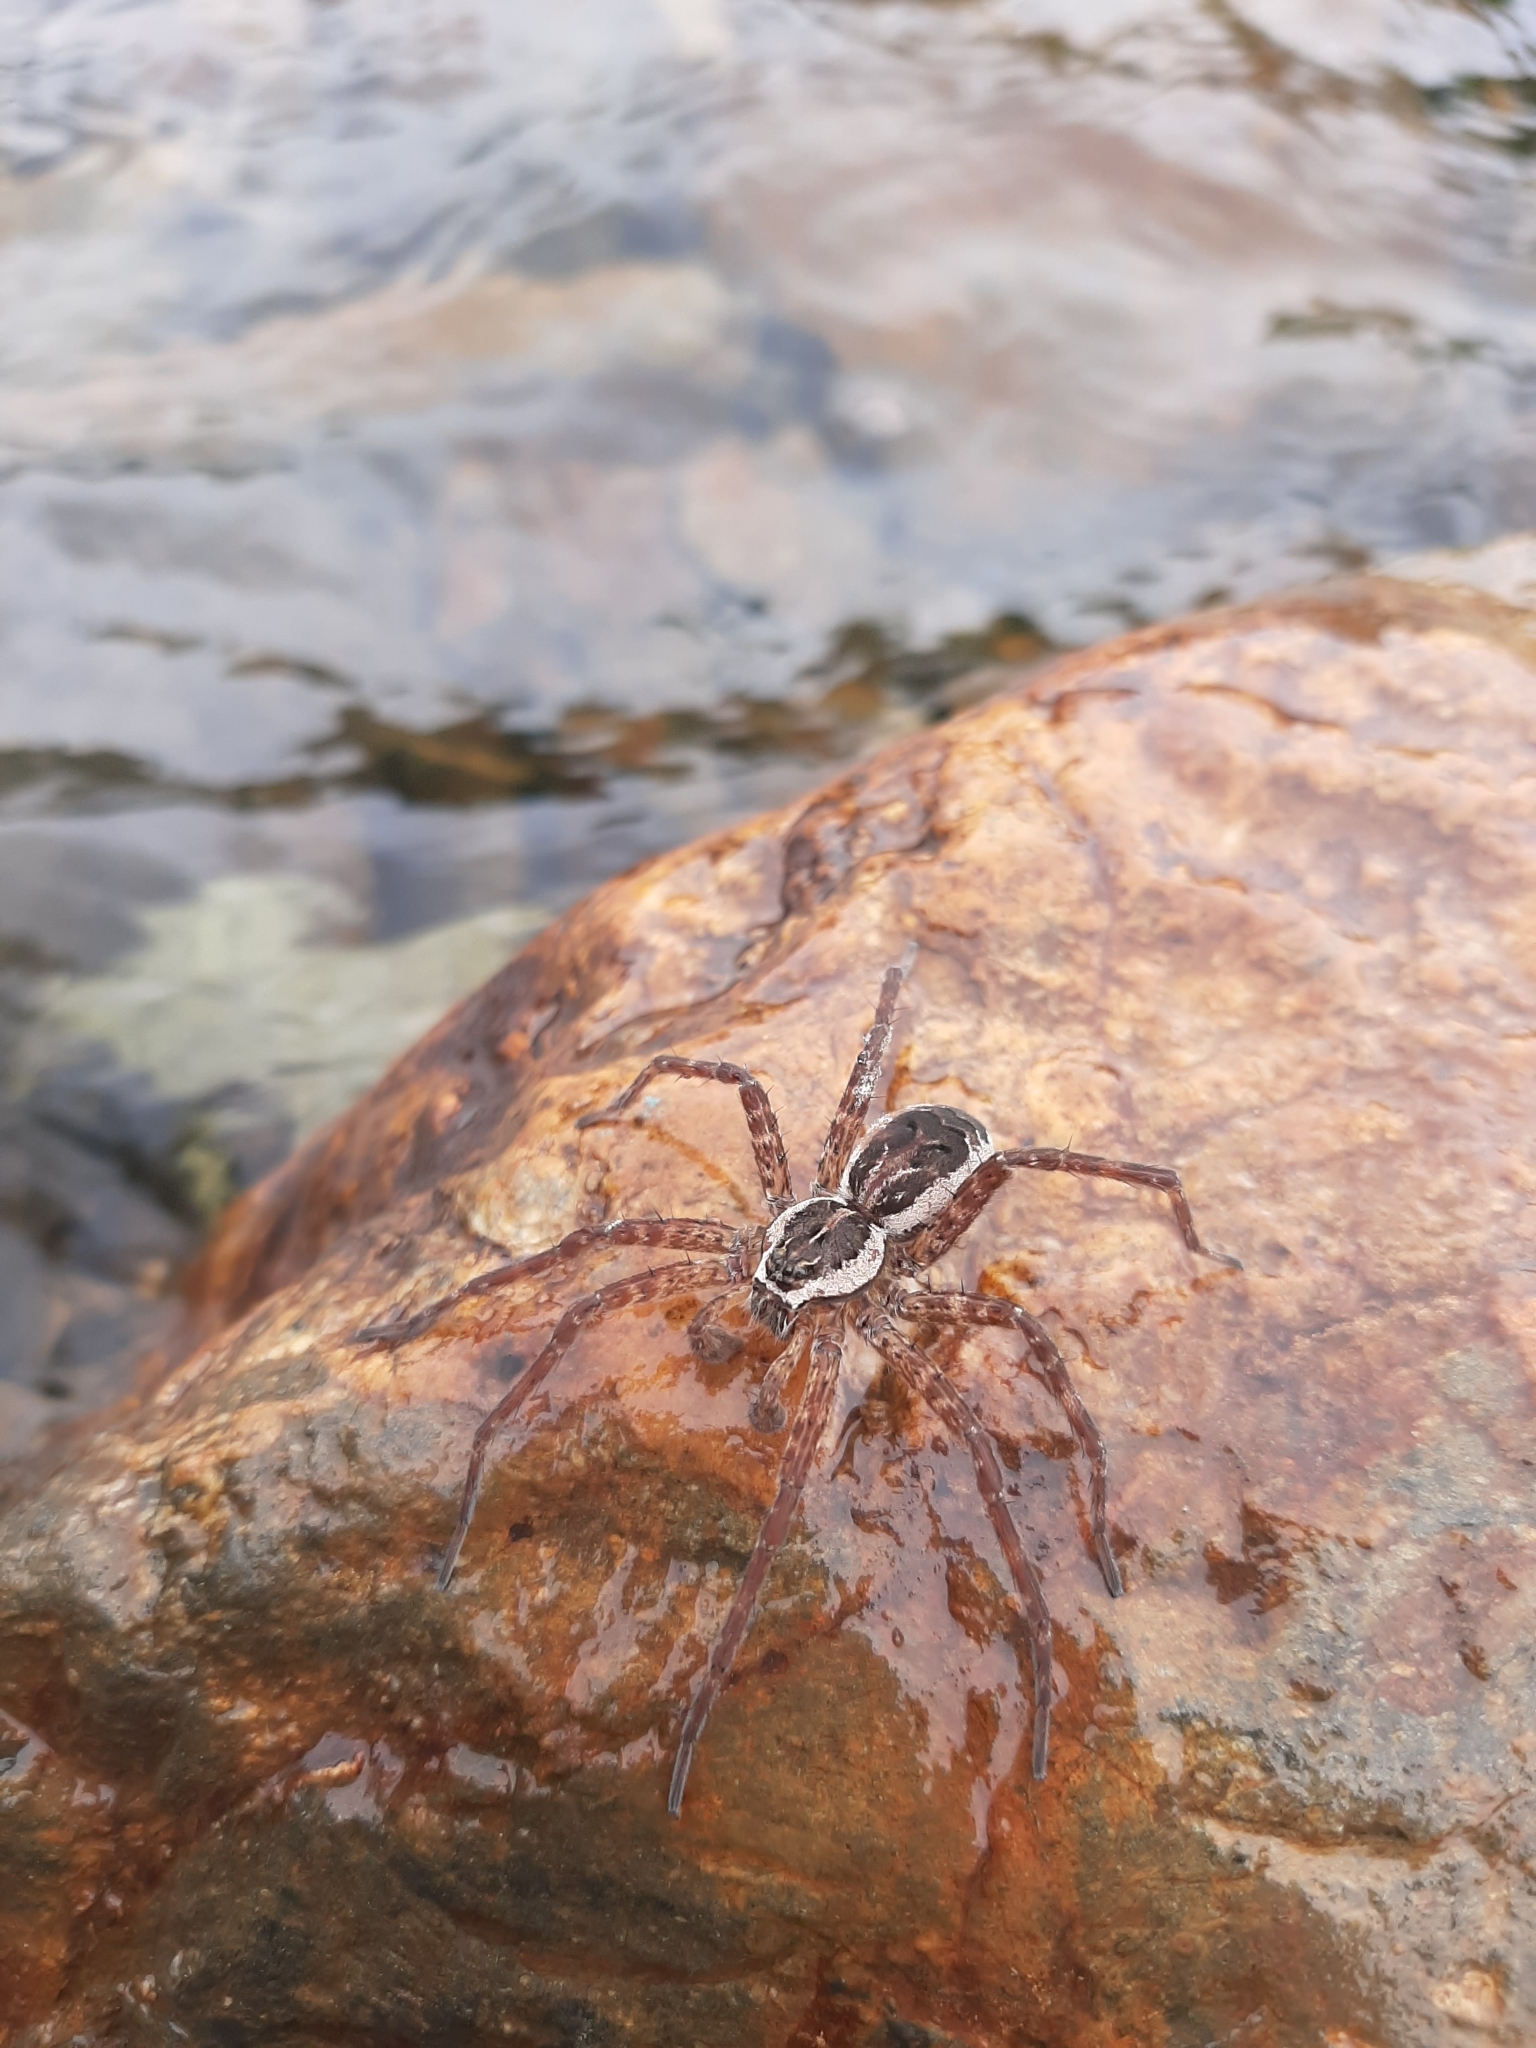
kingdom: Animalia
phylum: Arthropoda
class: Arachnida
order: Araneae
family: Pisauridae
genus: Dolomedes
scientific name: Dolomedes scriptus
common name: Striped fishing spider
